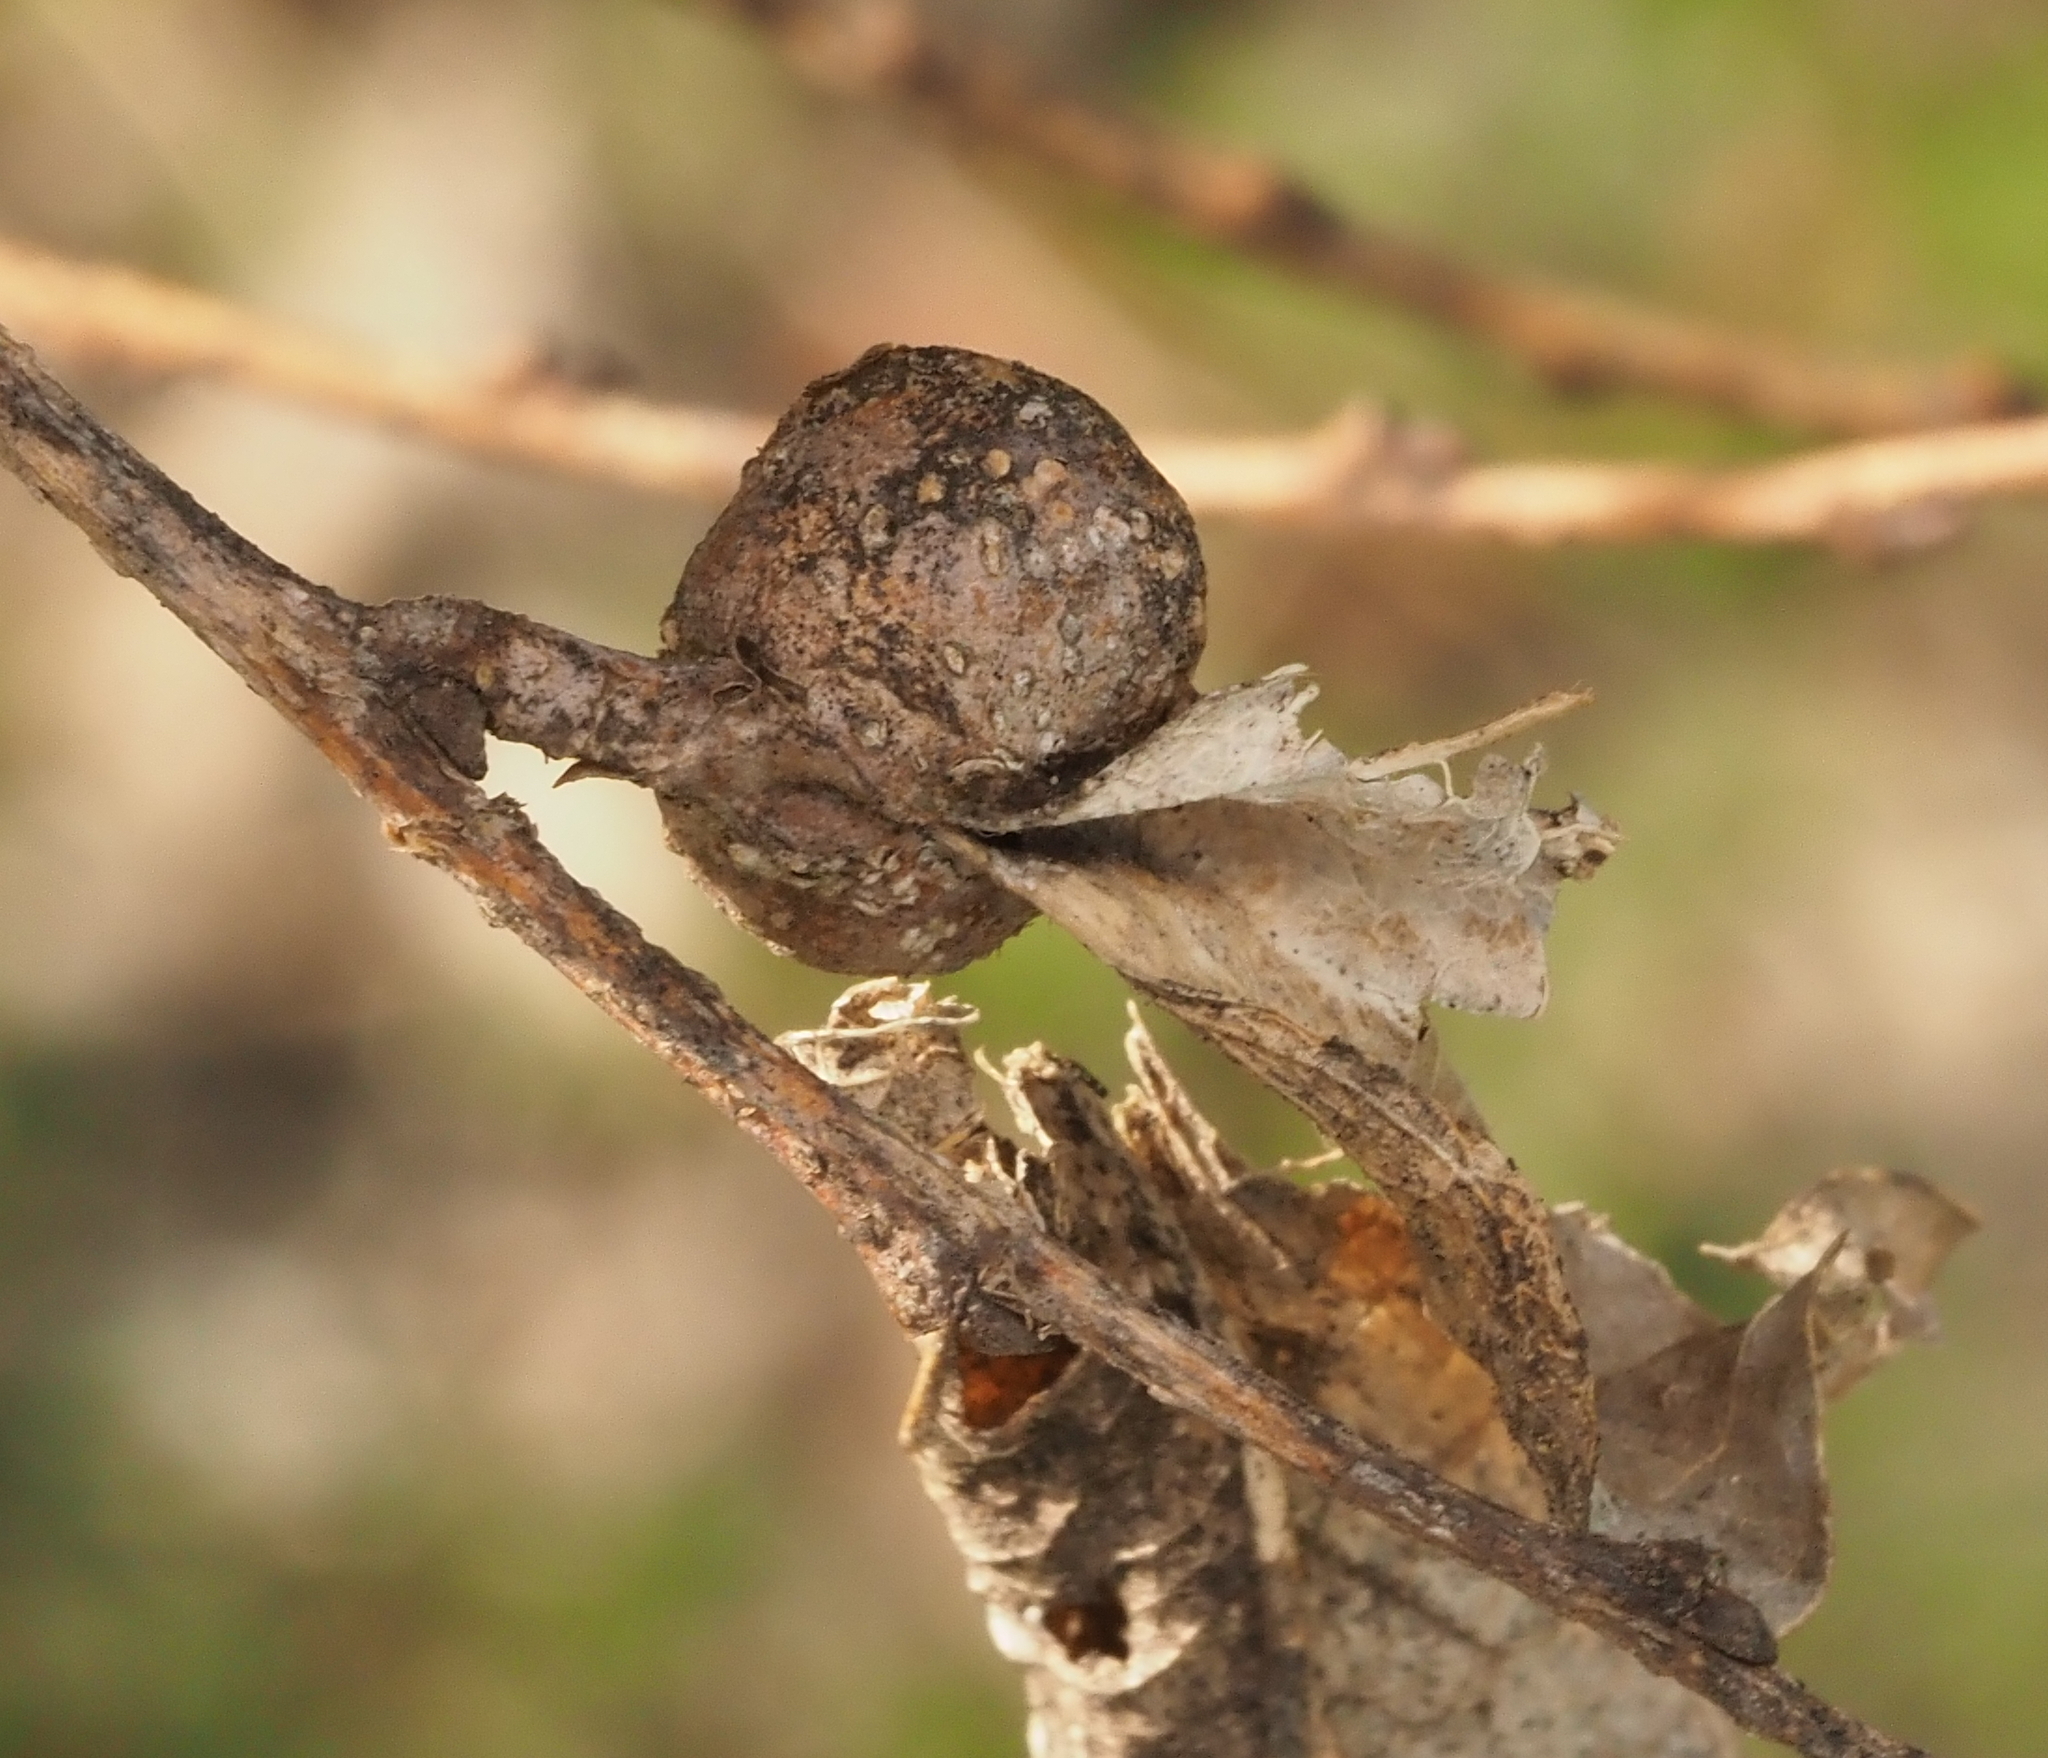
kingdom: Animalia
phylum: Arthropoda
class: Insecta
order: Hemiptera
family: Aphalaridae
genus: Pachypsylla
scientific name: Pachypsylla venusta
